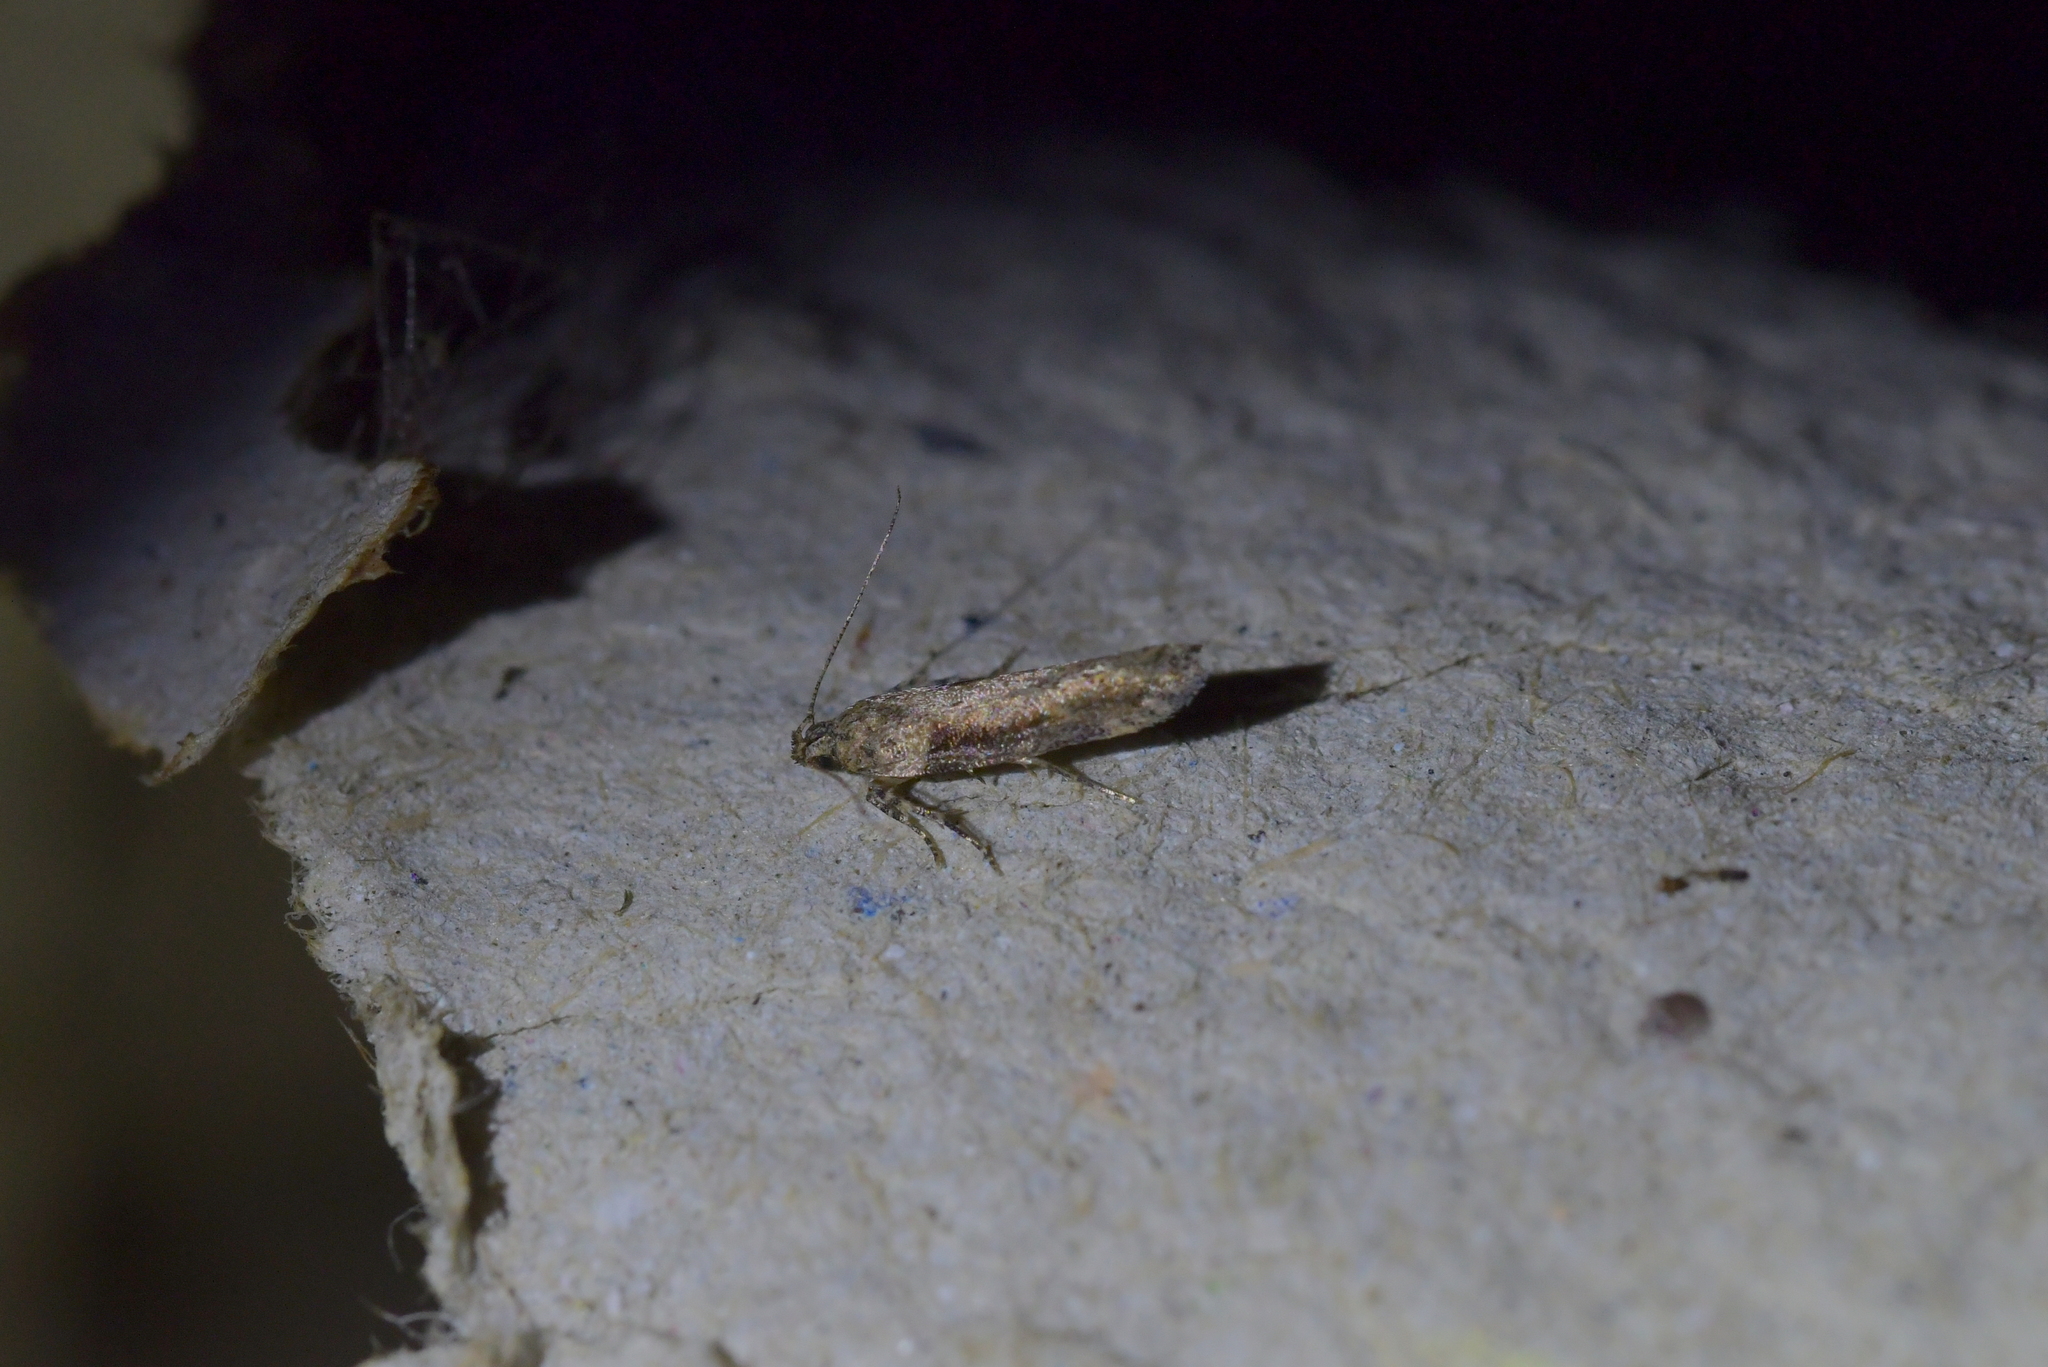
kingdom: Animalia
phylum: Arthropoda
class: Insecta
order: Lepidoptera
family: Gelechiidae
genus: Symmetrischema
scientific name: Symmetrischema tangolias
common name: Moth
